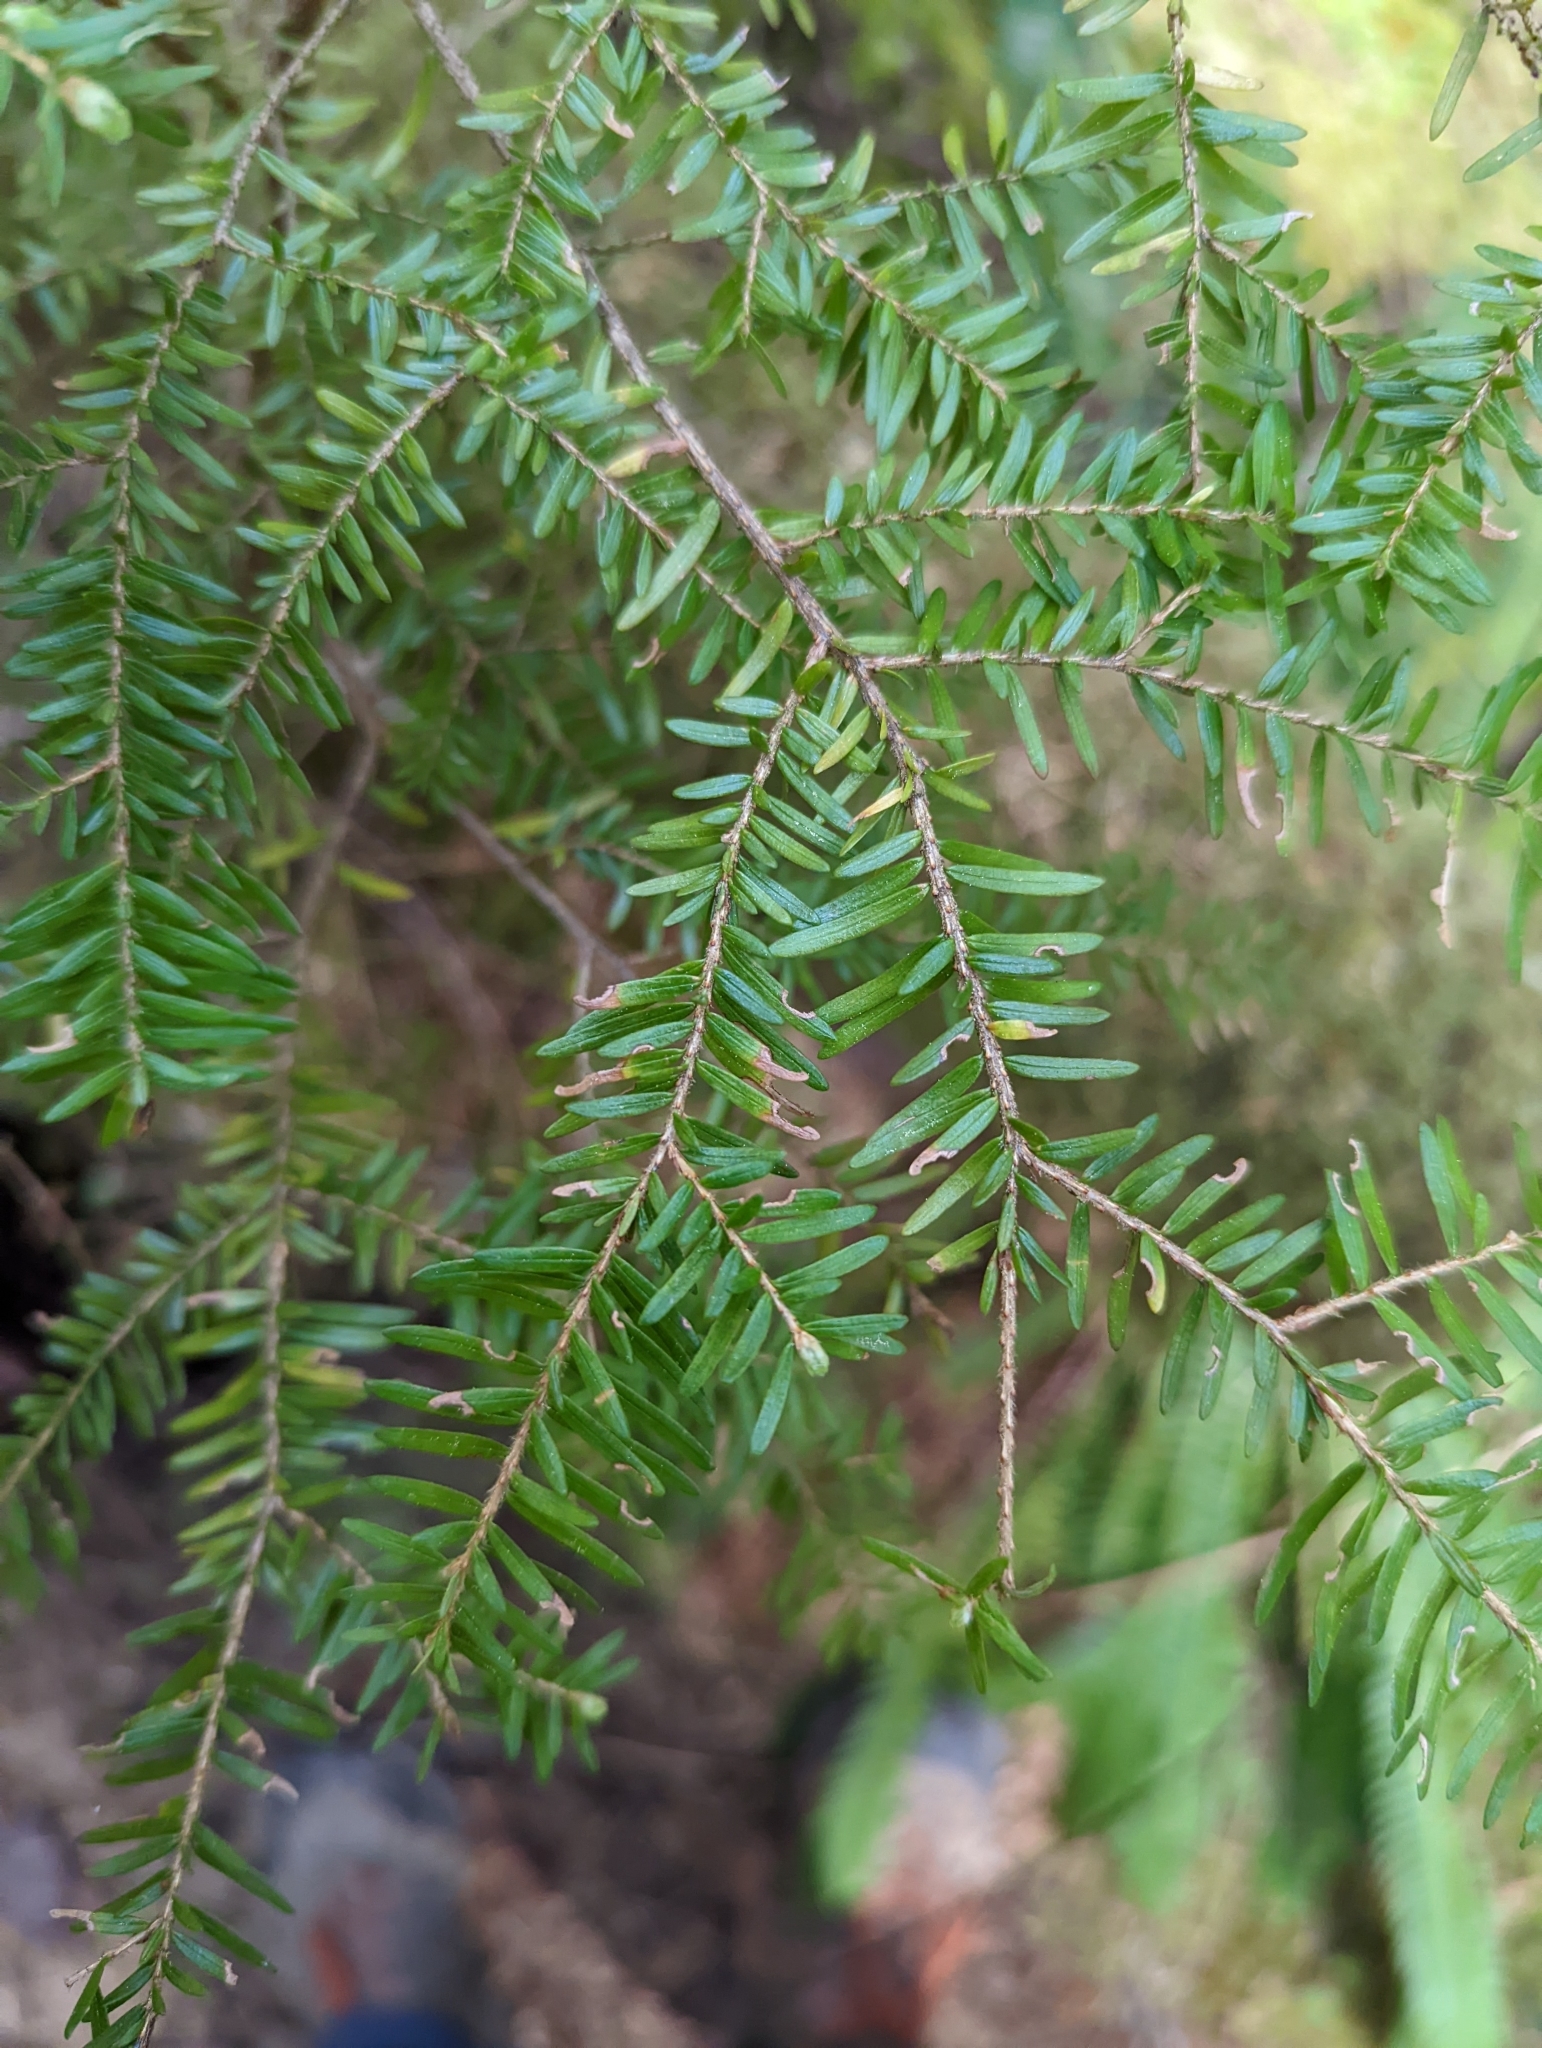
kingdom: Plantae
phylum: Tracheophyta
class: Pinopsida
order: Pinales
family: Pinaceae
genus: Tsuga
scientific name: Tsuga heterophylla
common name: Western hemlock
